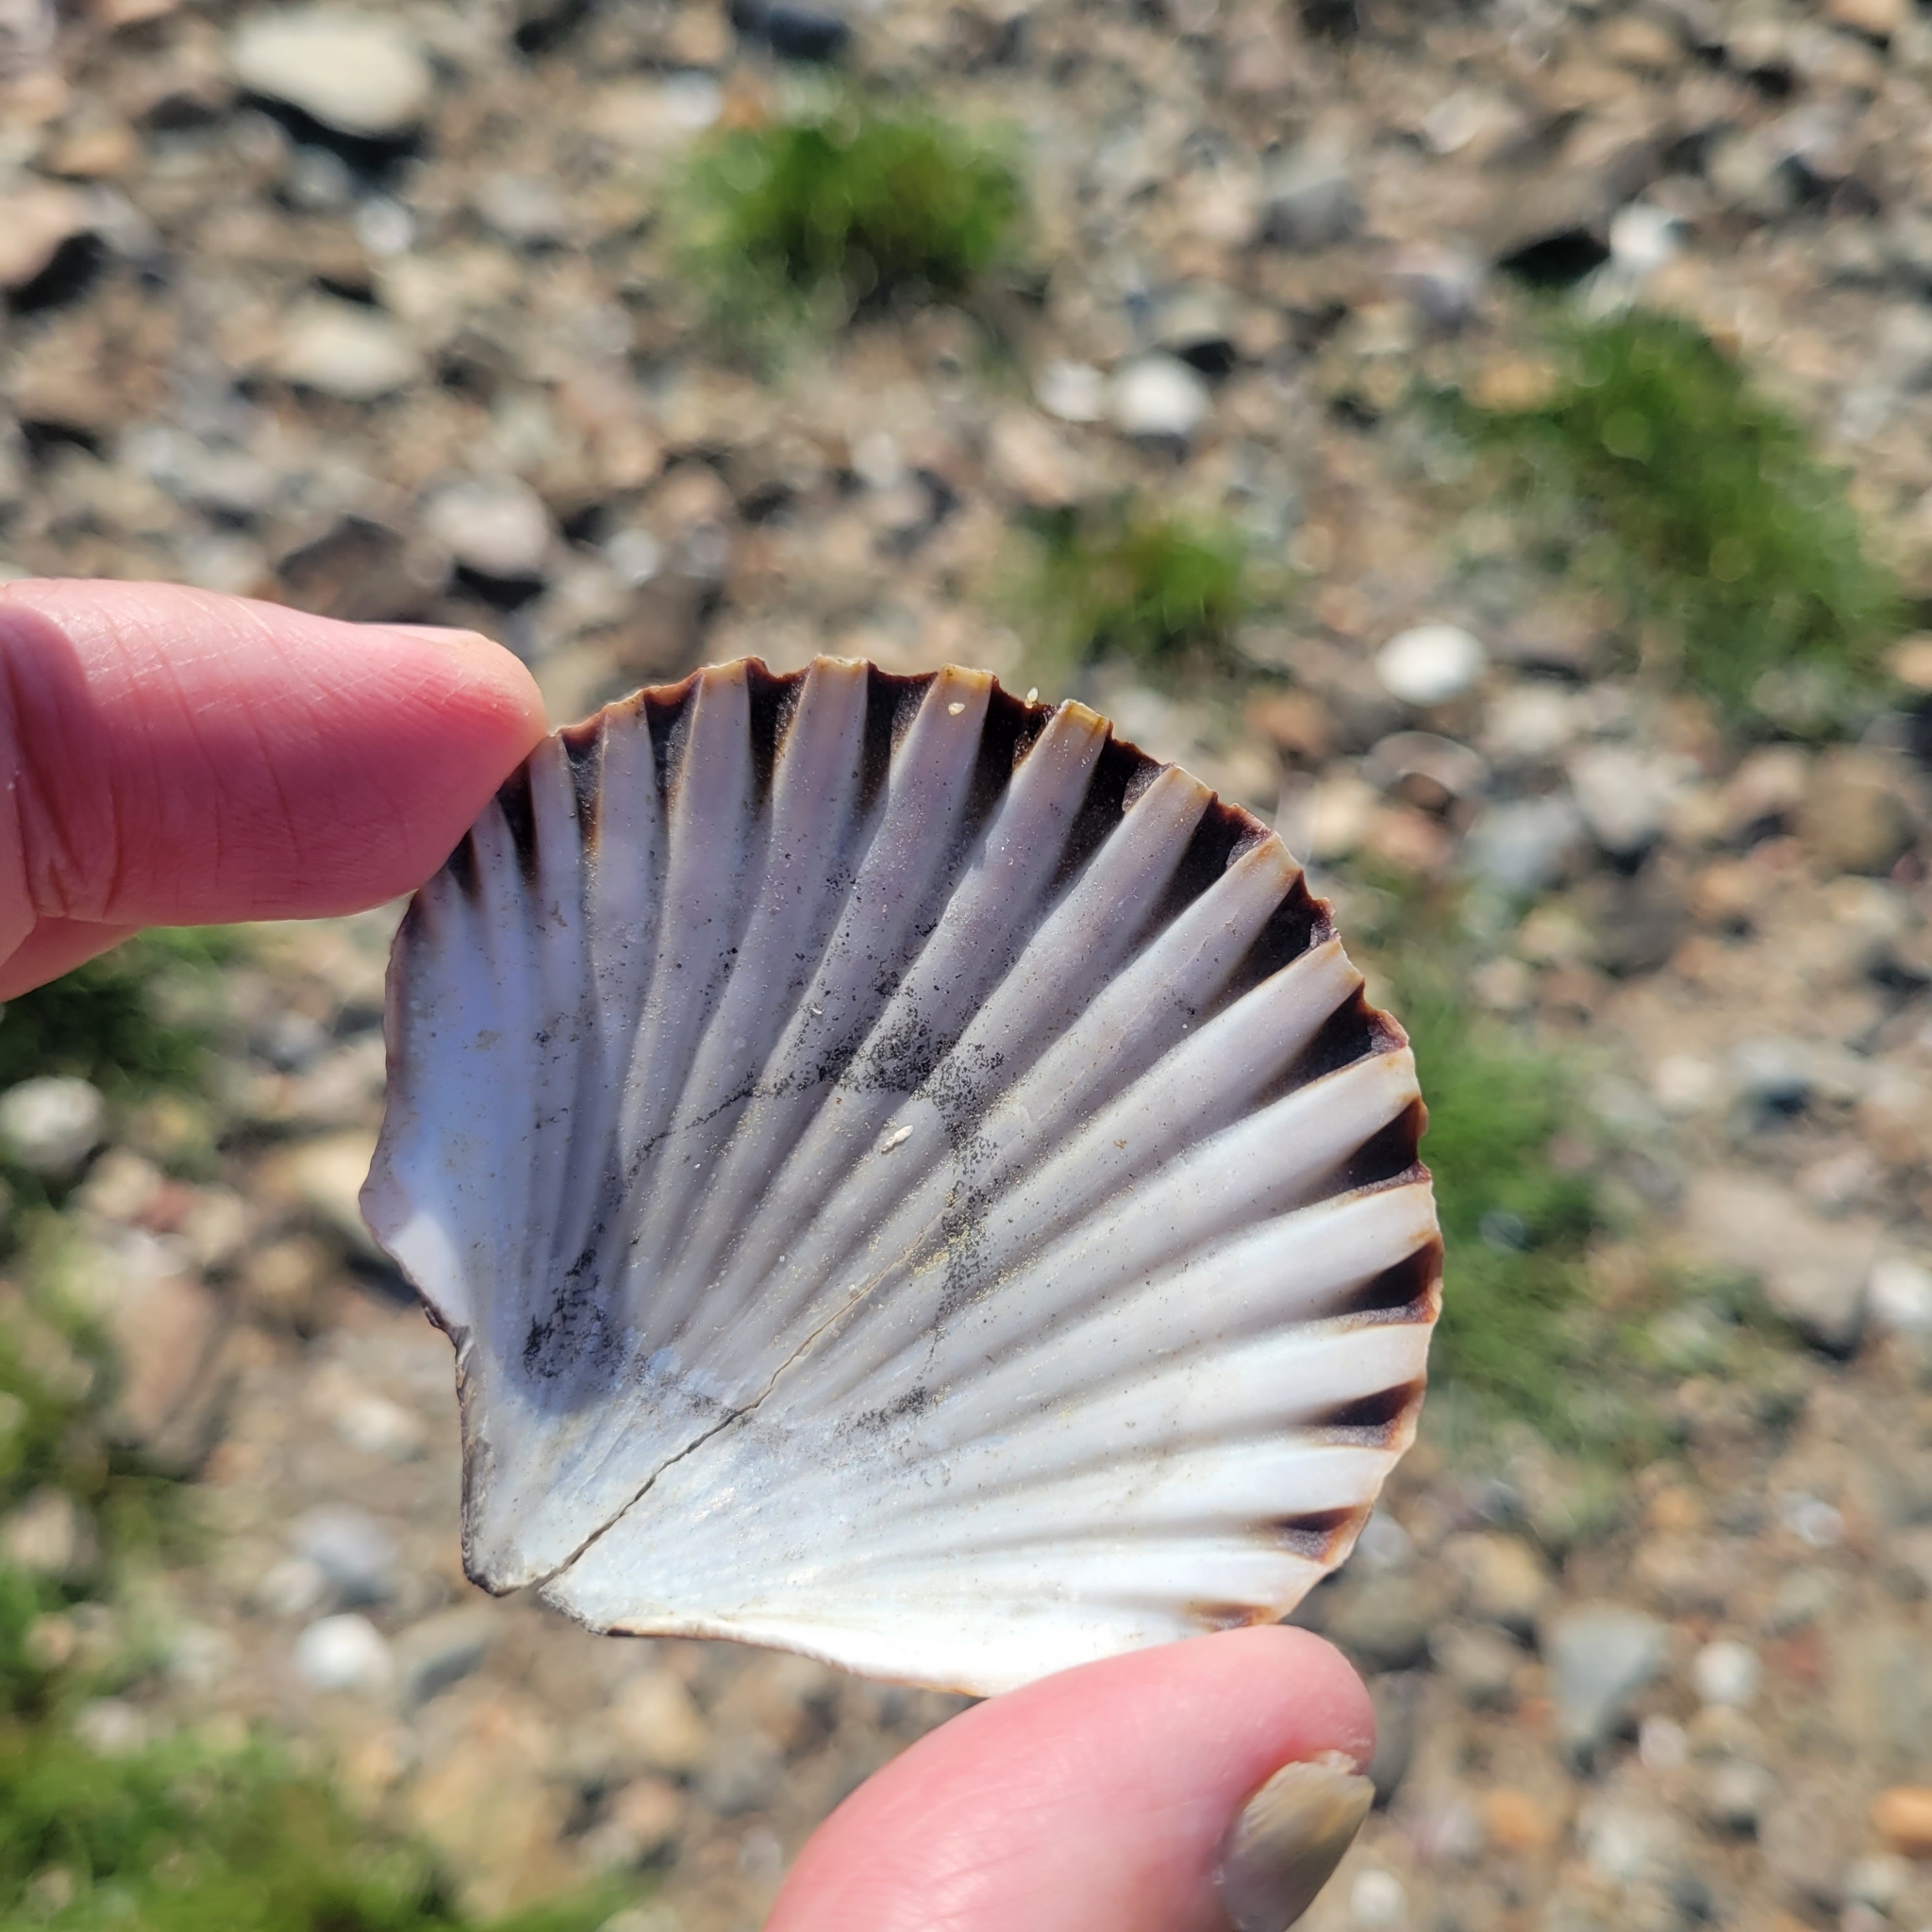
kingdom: Animalia
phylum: Mollusca
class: Bivalvia
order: Pectinida
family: Pectinidae
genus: Argopecten
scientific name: Argopecten irradians
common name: Atlantic bay scallop
